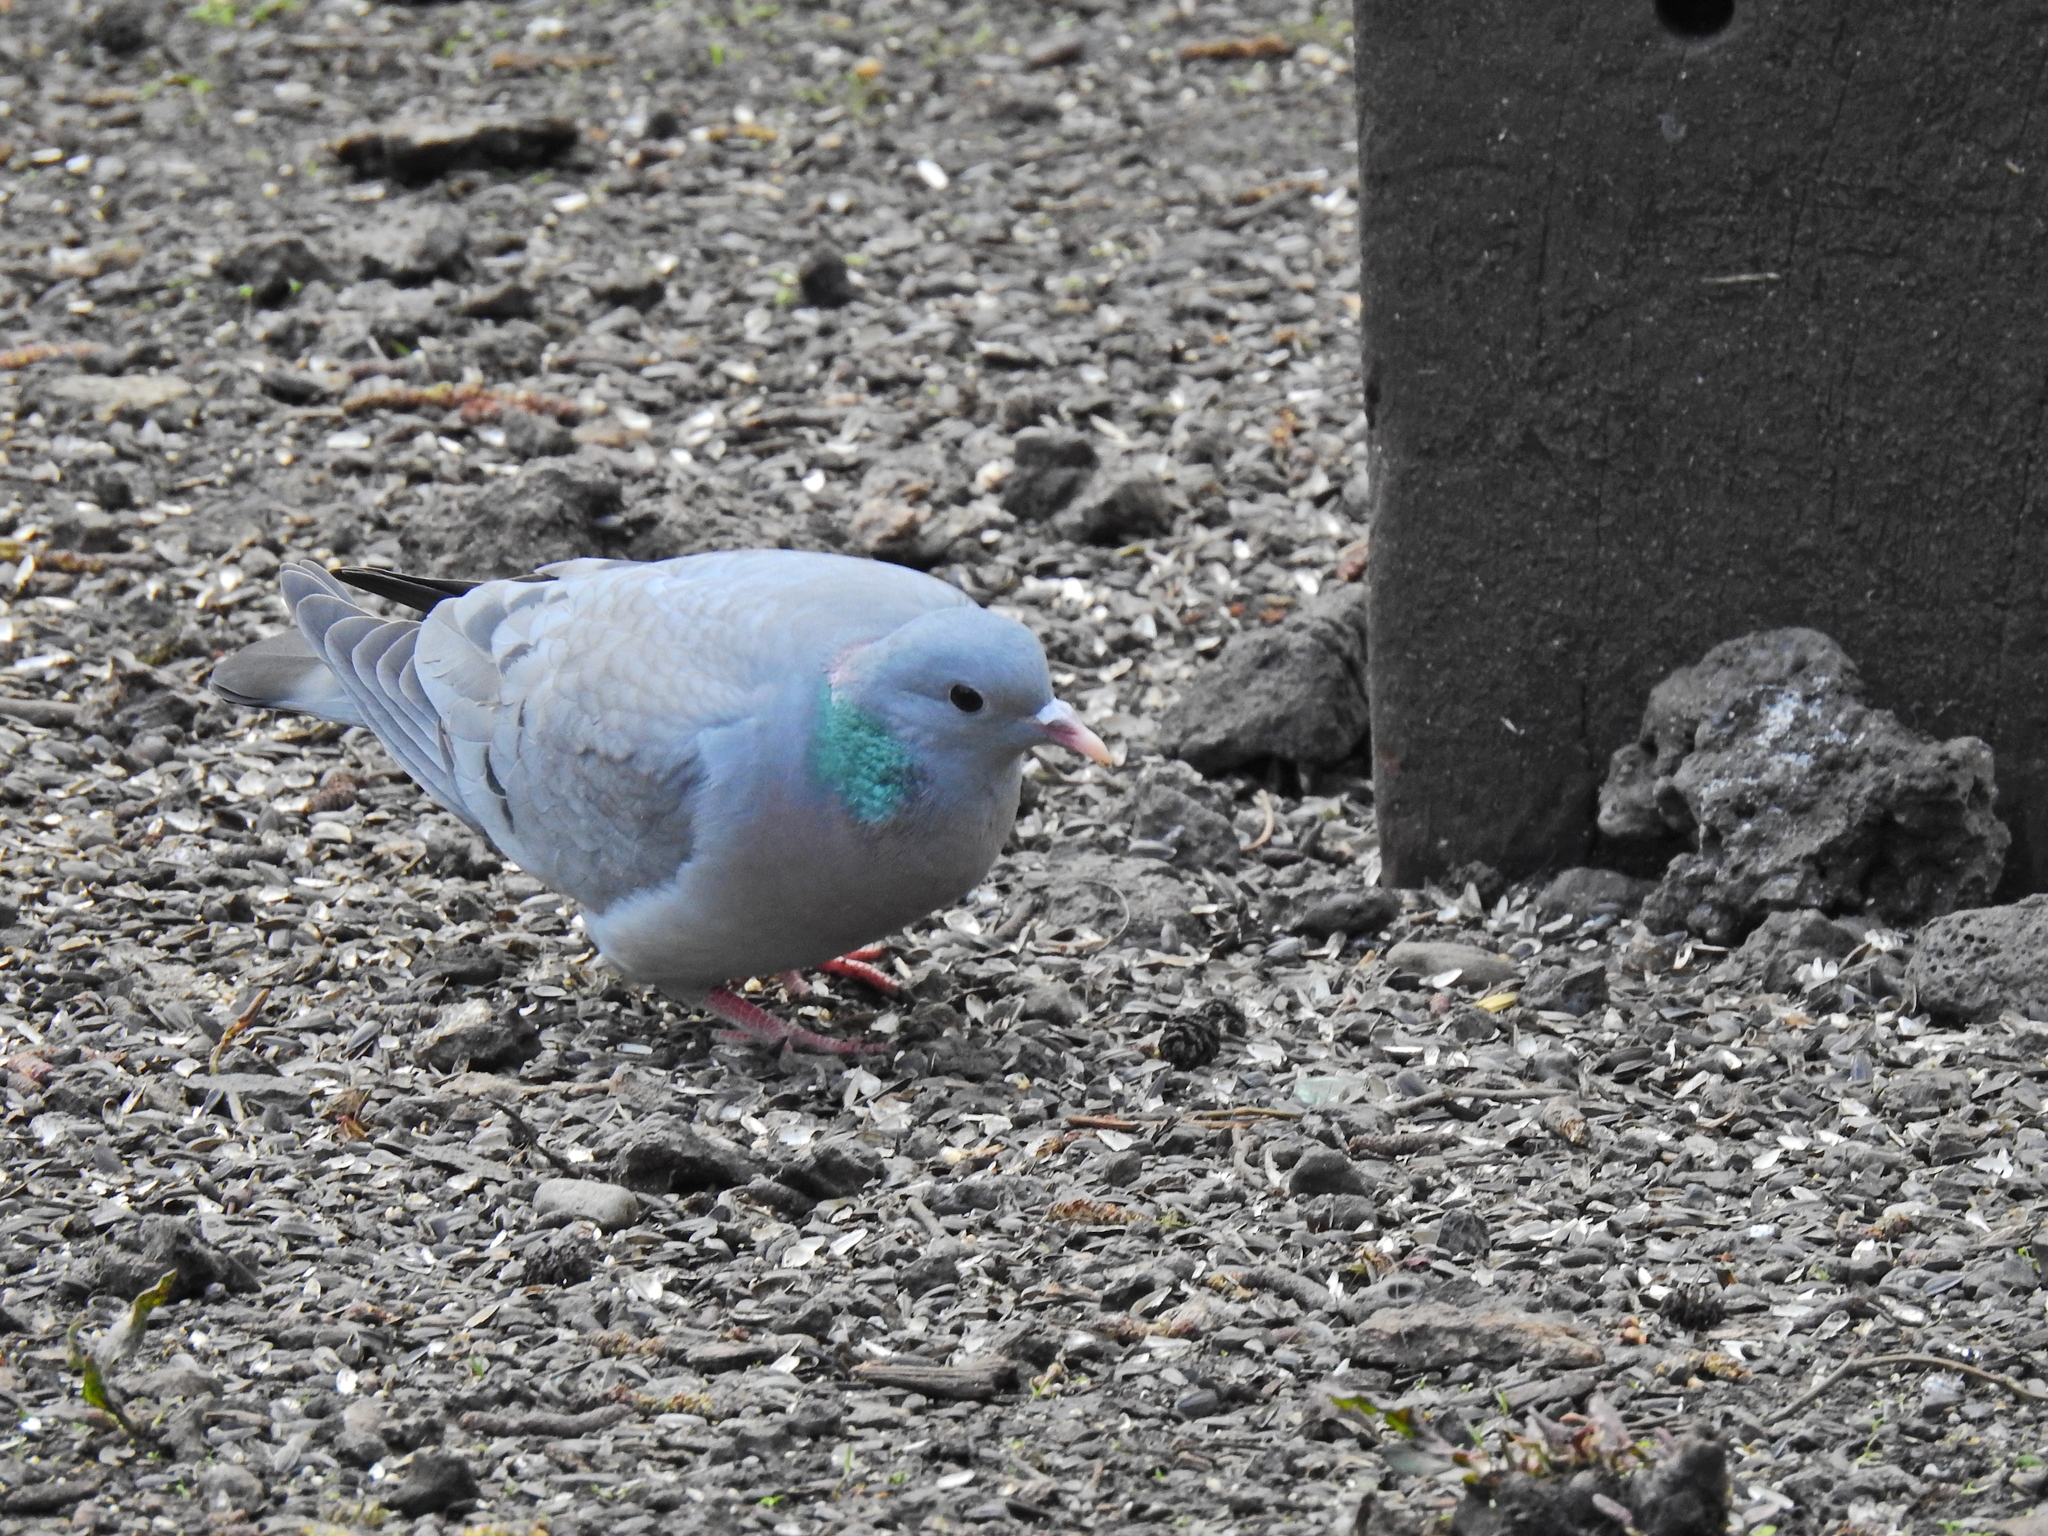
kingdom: Animalia
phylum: Chordata
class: Aves
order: Columbiformes
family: Columbidae
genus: Columba
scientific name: Columba oenas
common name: Stock dove
